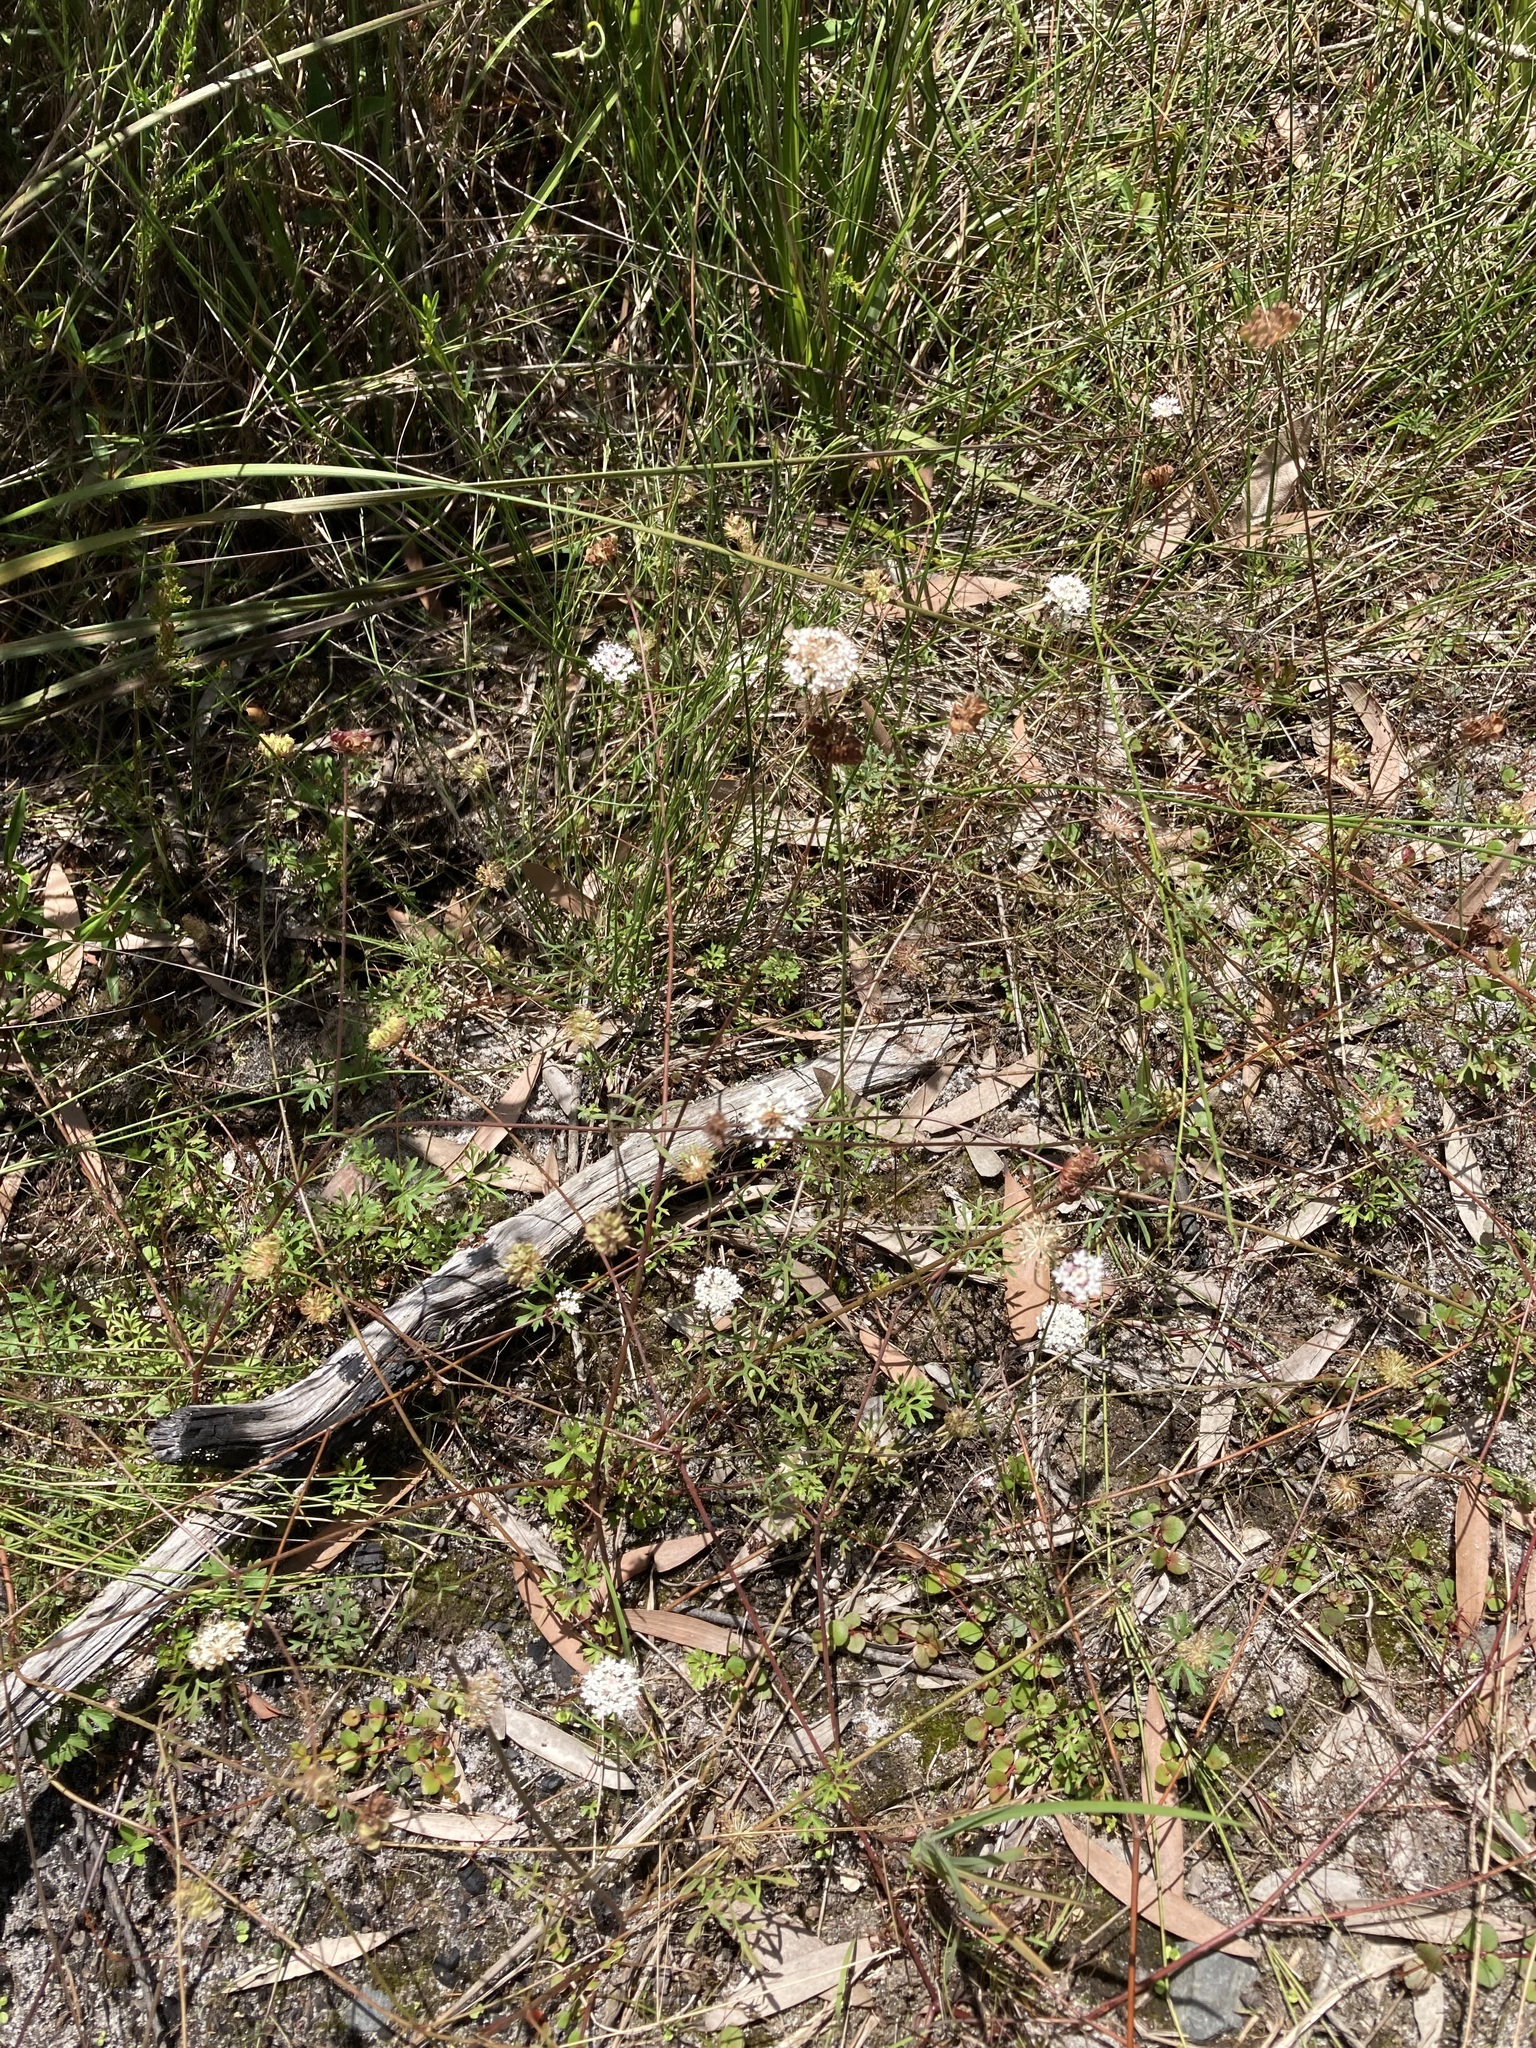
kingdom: Plantae
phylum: Tracheophyta
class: Magnoliopsida
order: Apiales
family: Araliaceae
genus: Trachymene
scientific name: Trachymene incisa
